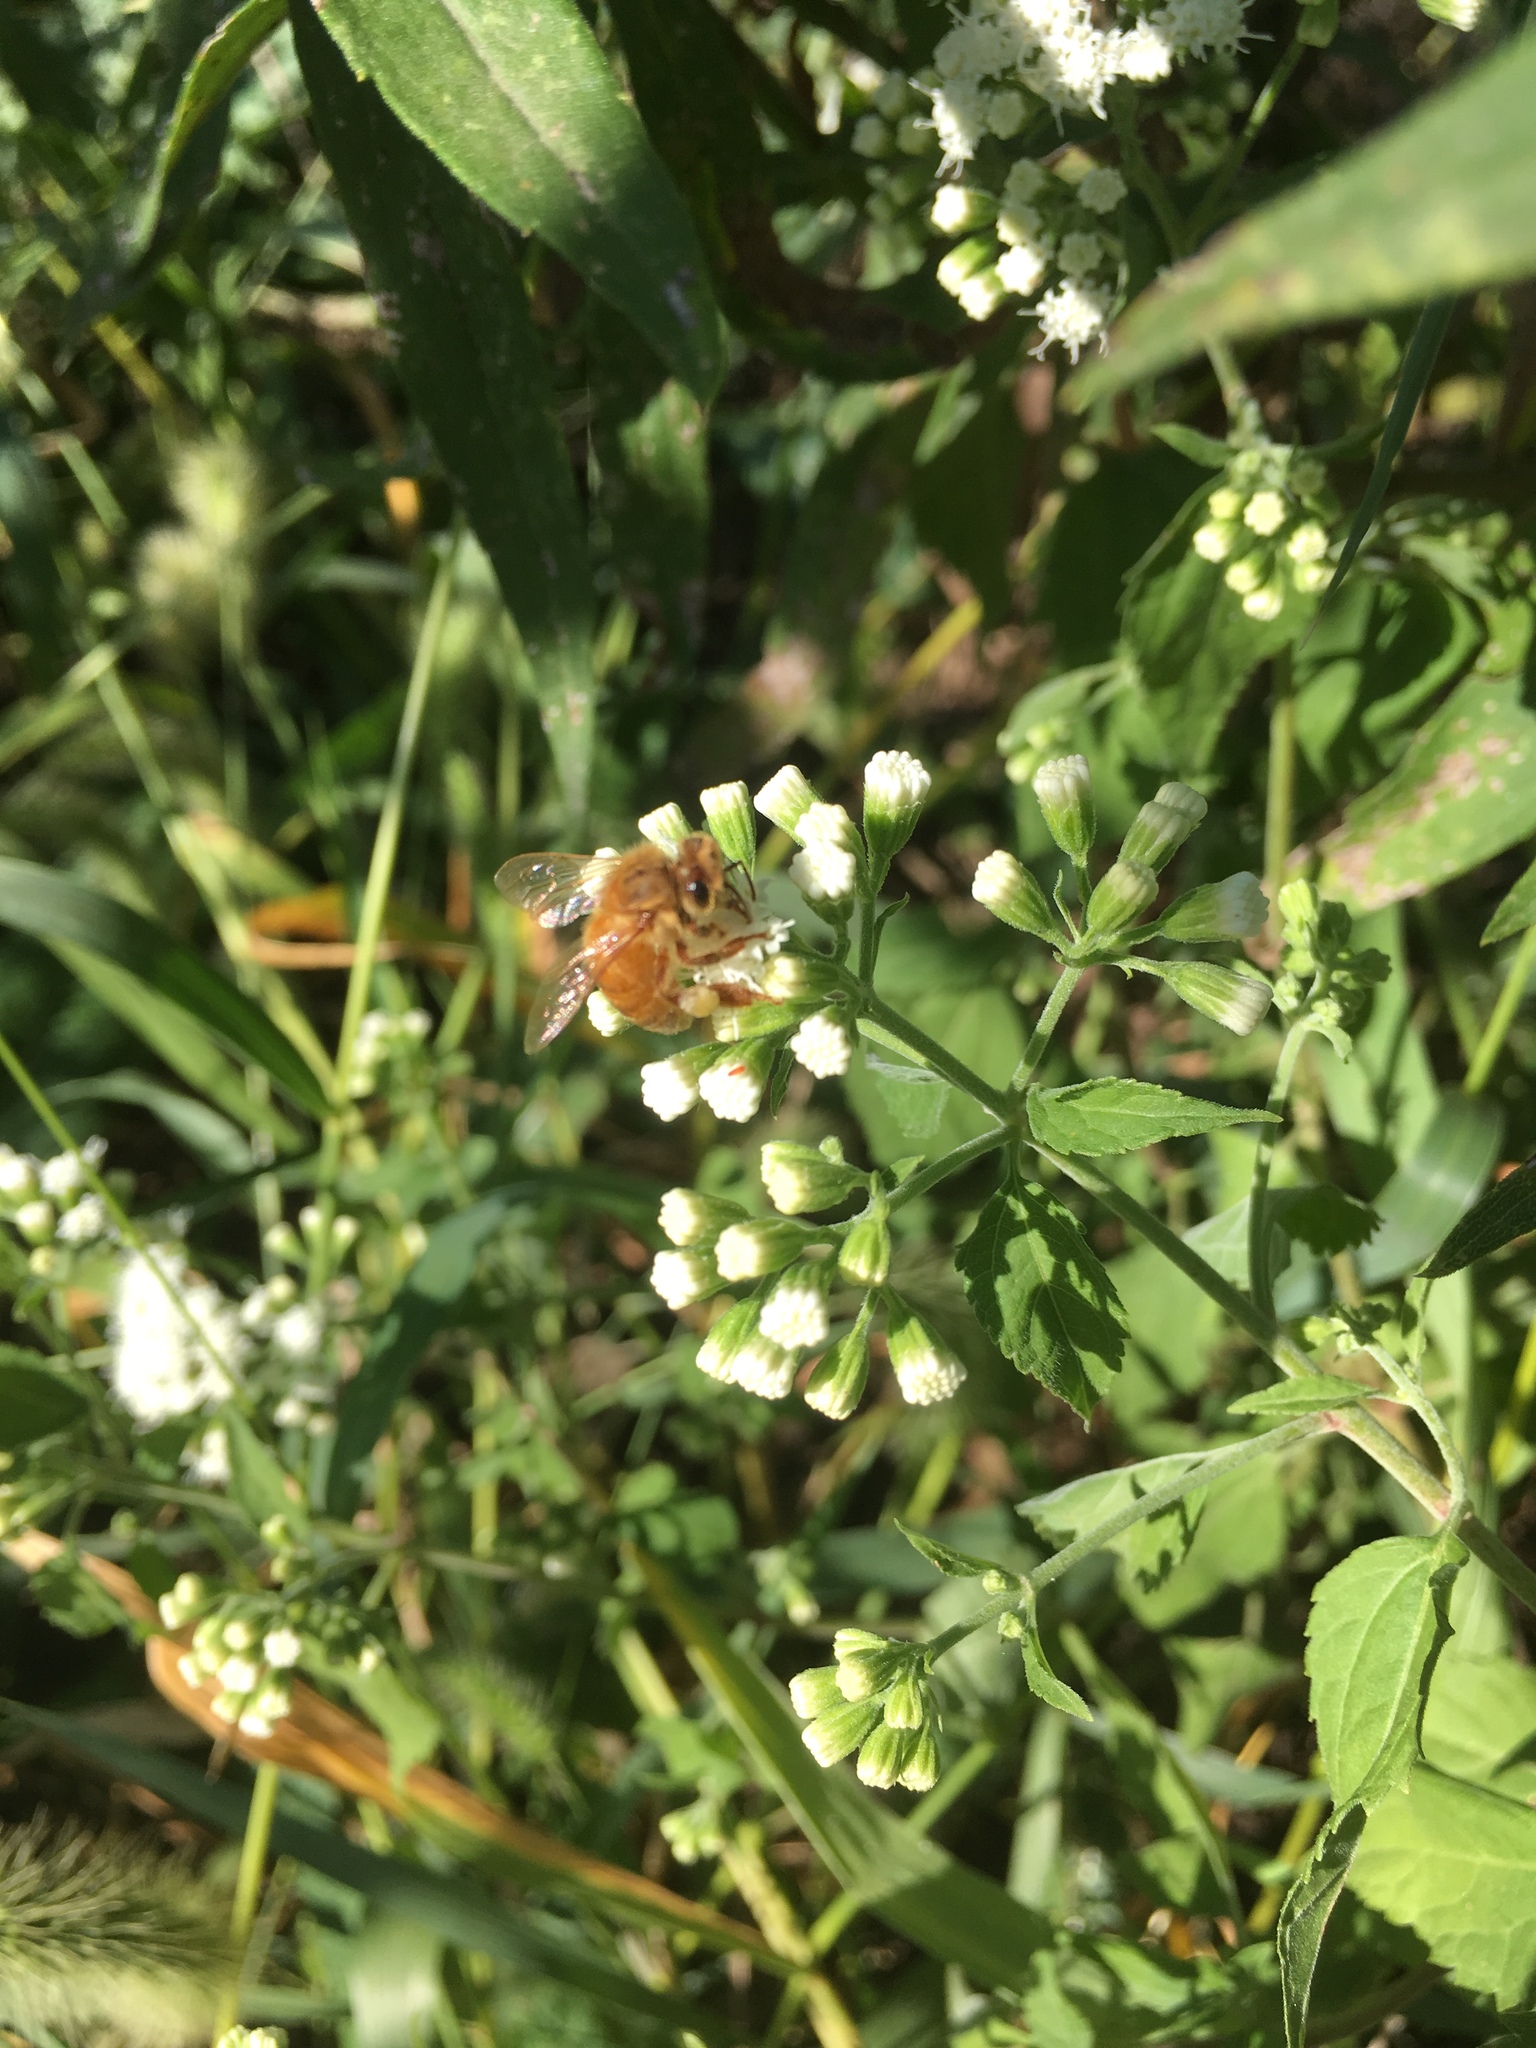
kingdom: Animalia
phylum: Arthropoda
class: Insecta
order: Hymenoptera
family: Apidae
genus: Apis
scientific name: Apis mellifera
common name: Honey bee
